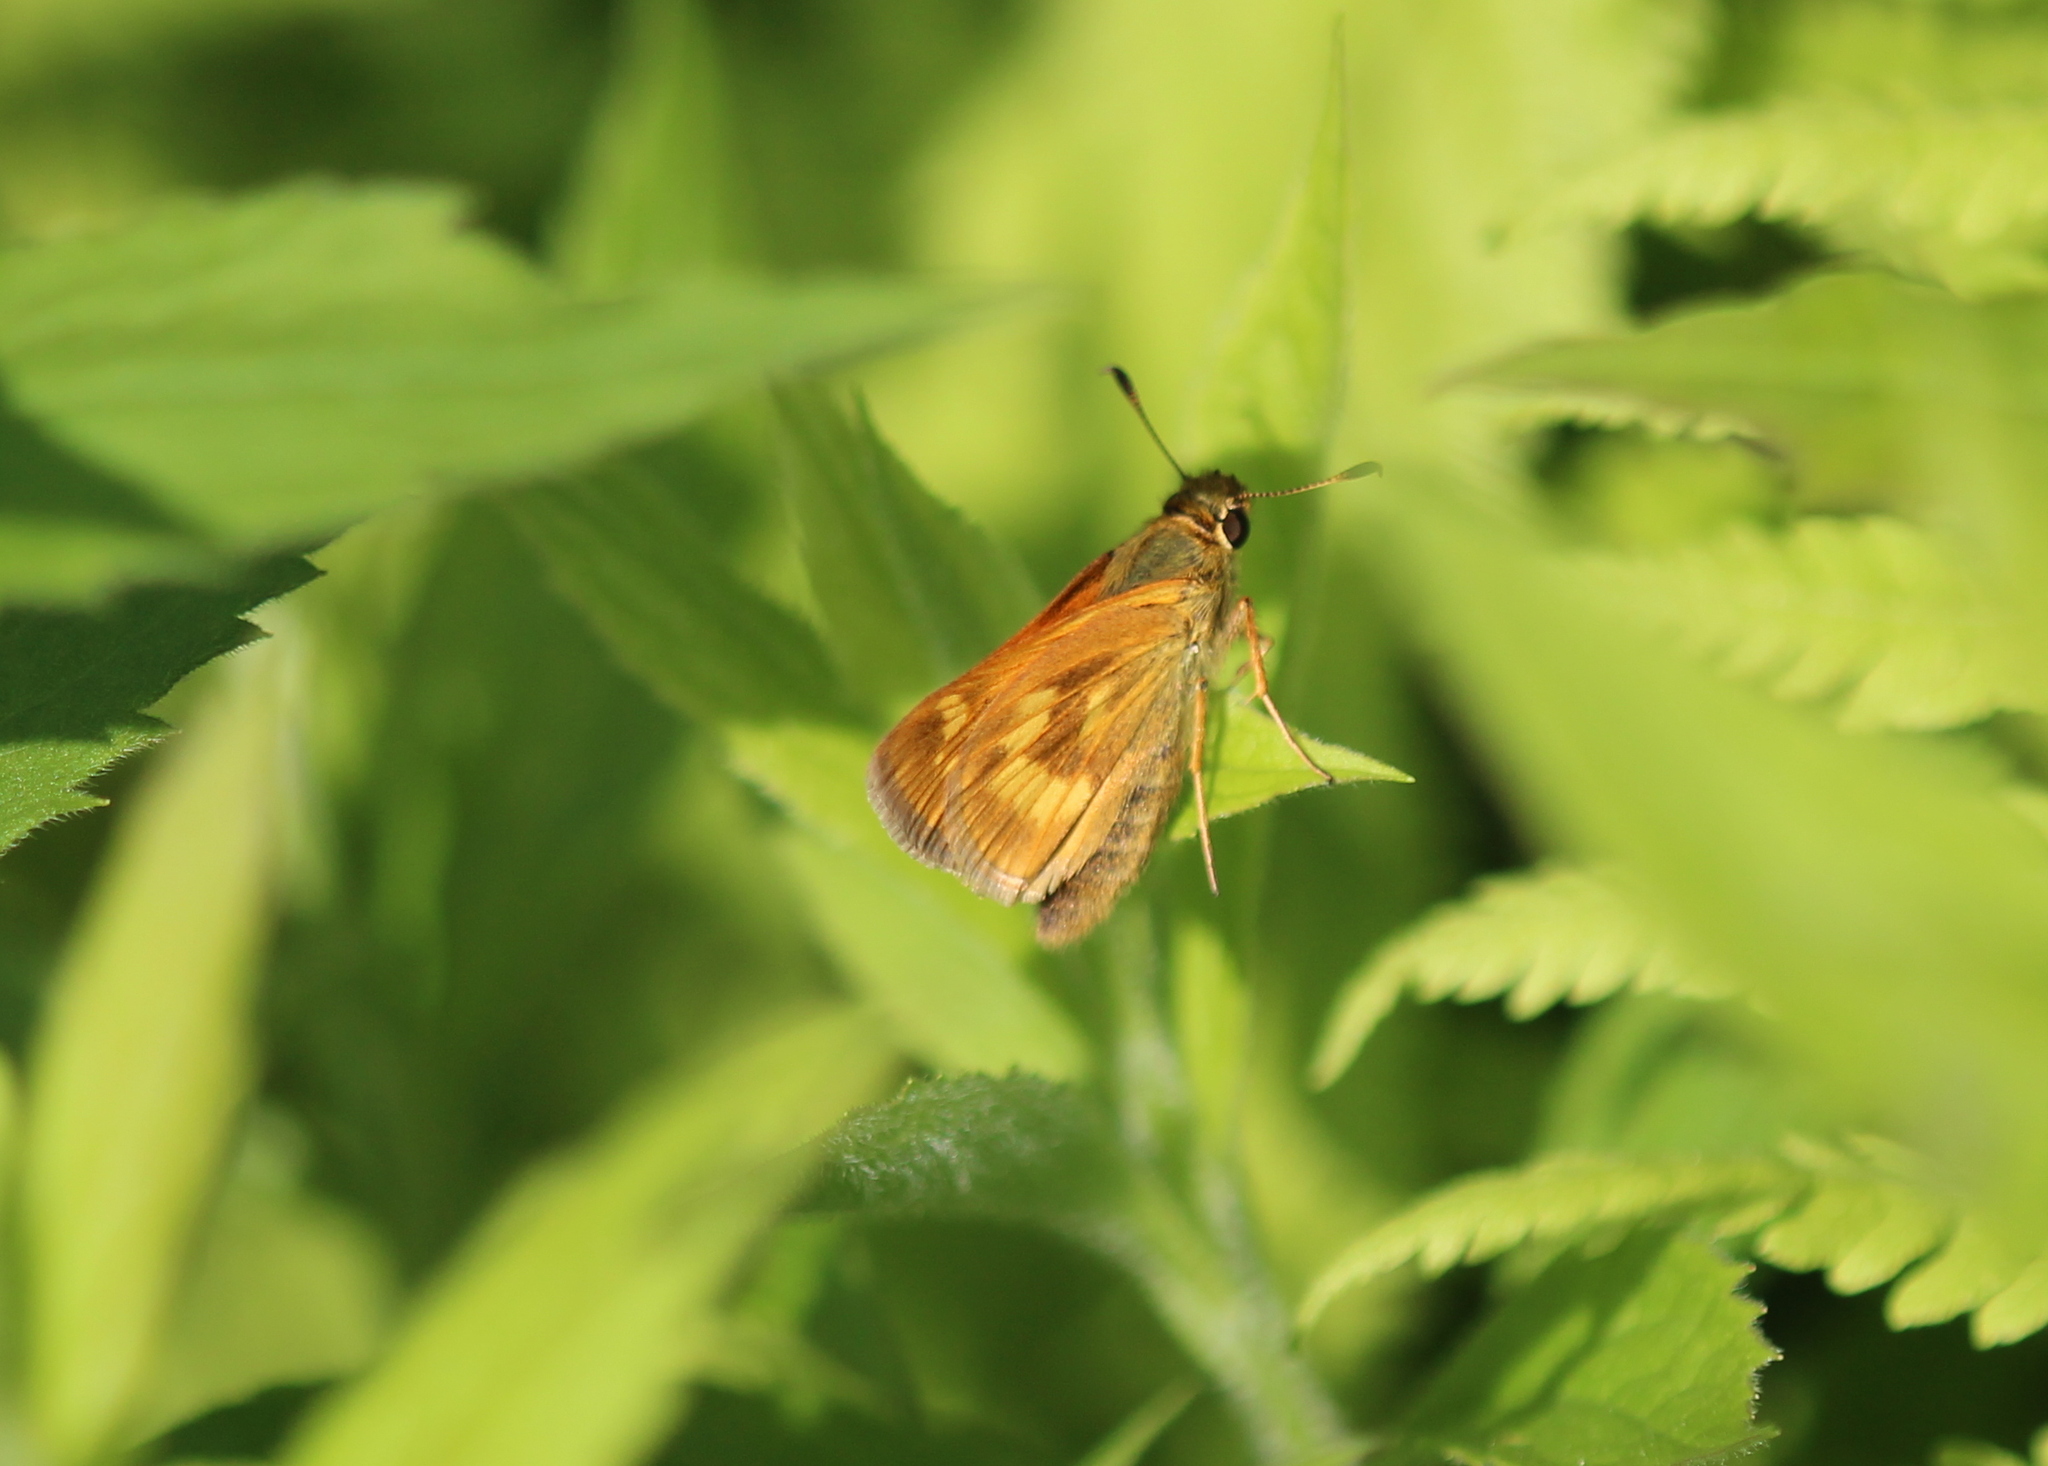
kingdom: Animalia
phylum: Arthropoda
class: Insecta
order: Lepidoptera
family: Hesperiidae
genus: Polites
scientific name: Polites mystic
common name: Long dash
